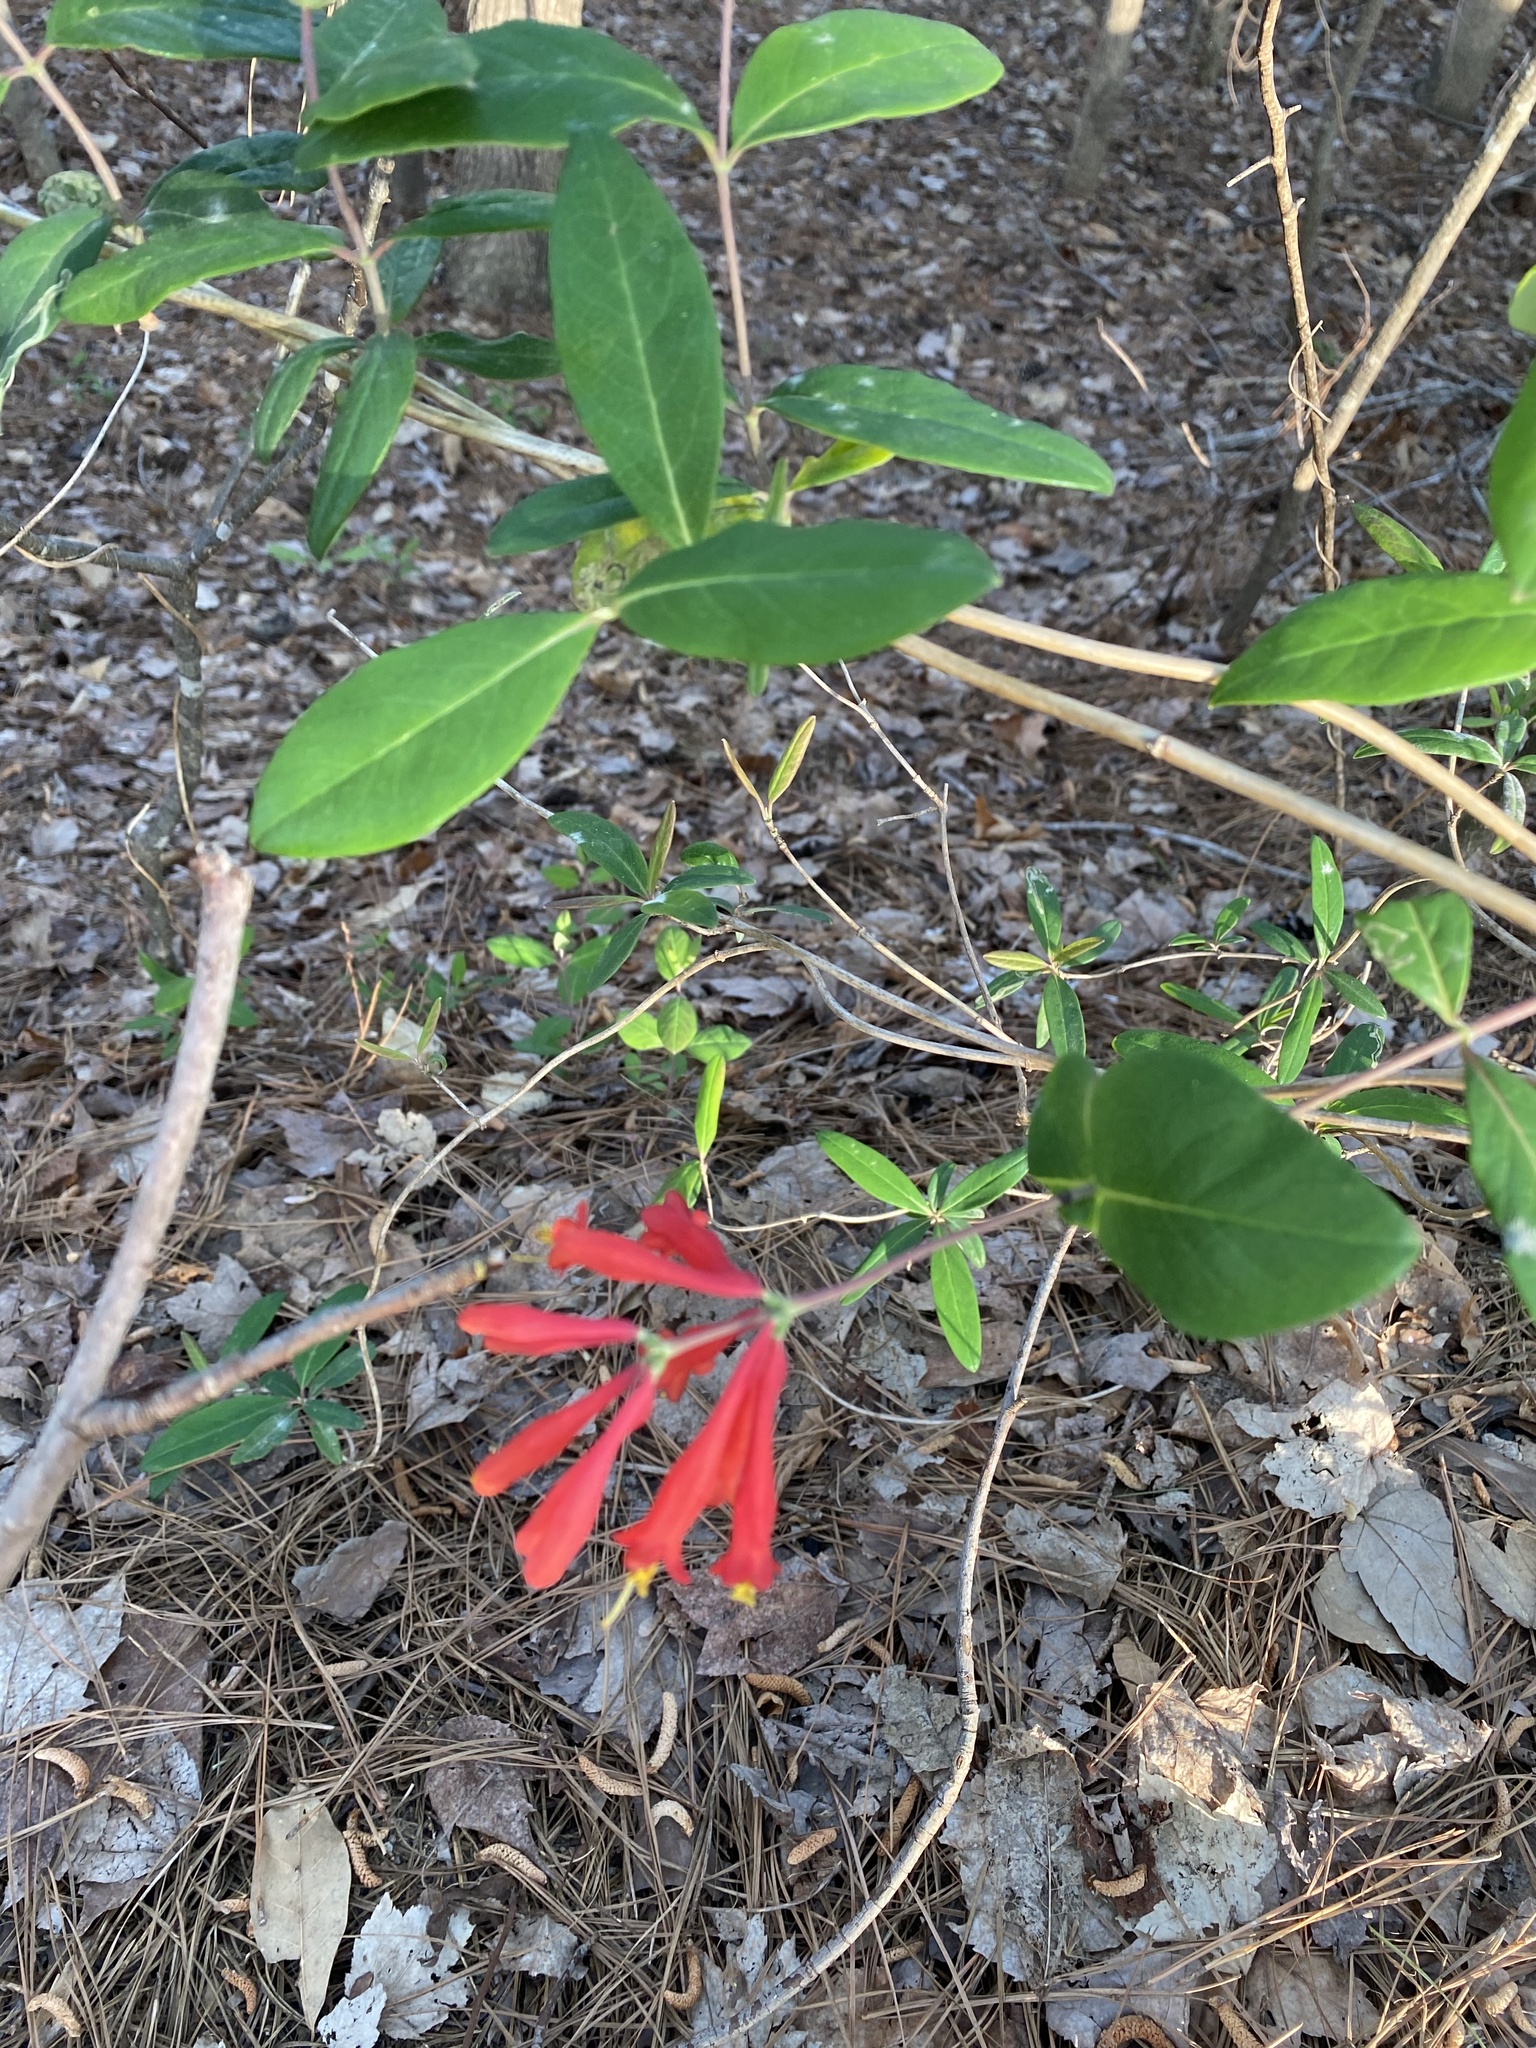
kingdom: Plantae
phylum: Tracheophyta
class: Magnoliopsida
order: Dipsacales
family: Caprifoliaceae
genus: Lonicera
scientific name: Lonicera sempervirens
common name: Coral honeysuckle
